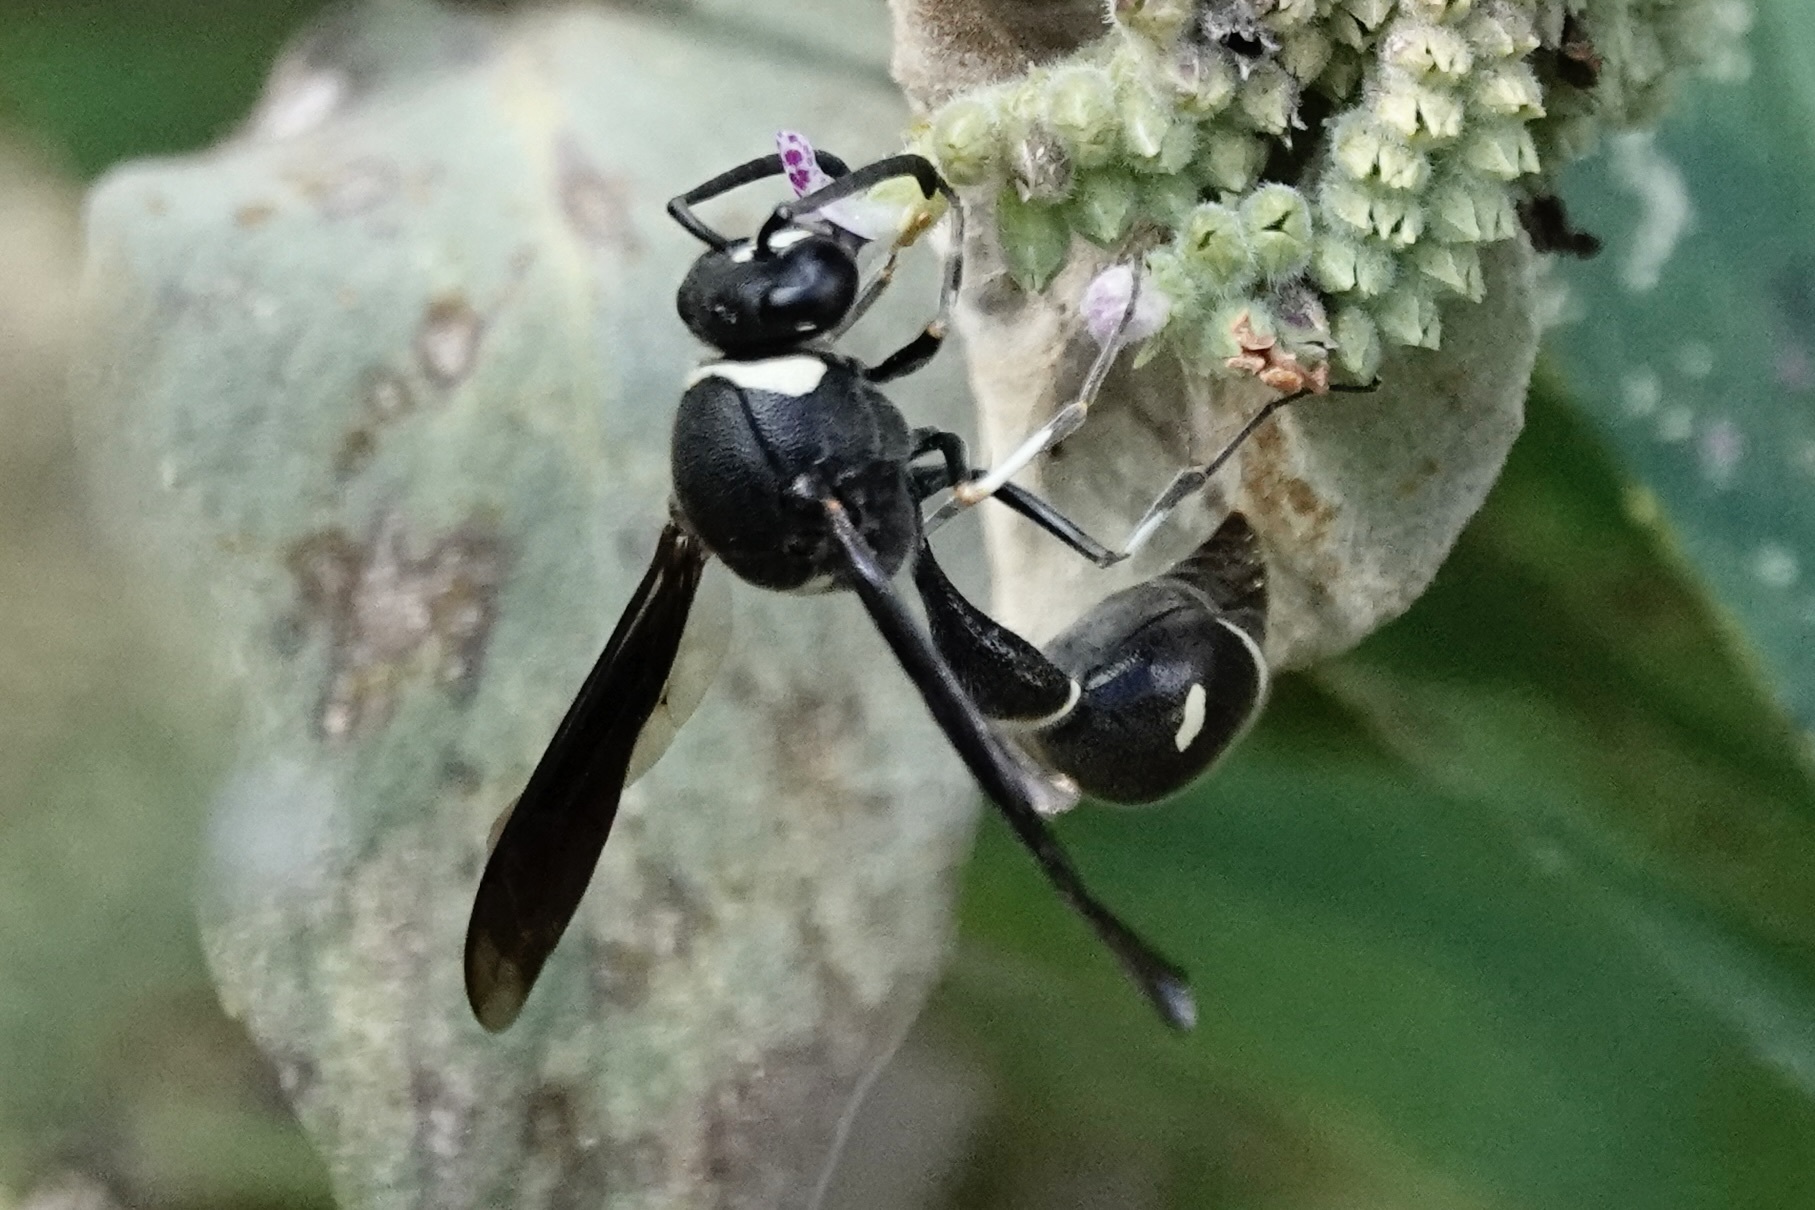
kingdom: Animalia
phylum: Arthropoda
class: Insecta
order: Hymenoptera
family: Vespidae
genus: Eumenes
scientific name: Eumenes fraternus
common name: Fraternal potter wasp
